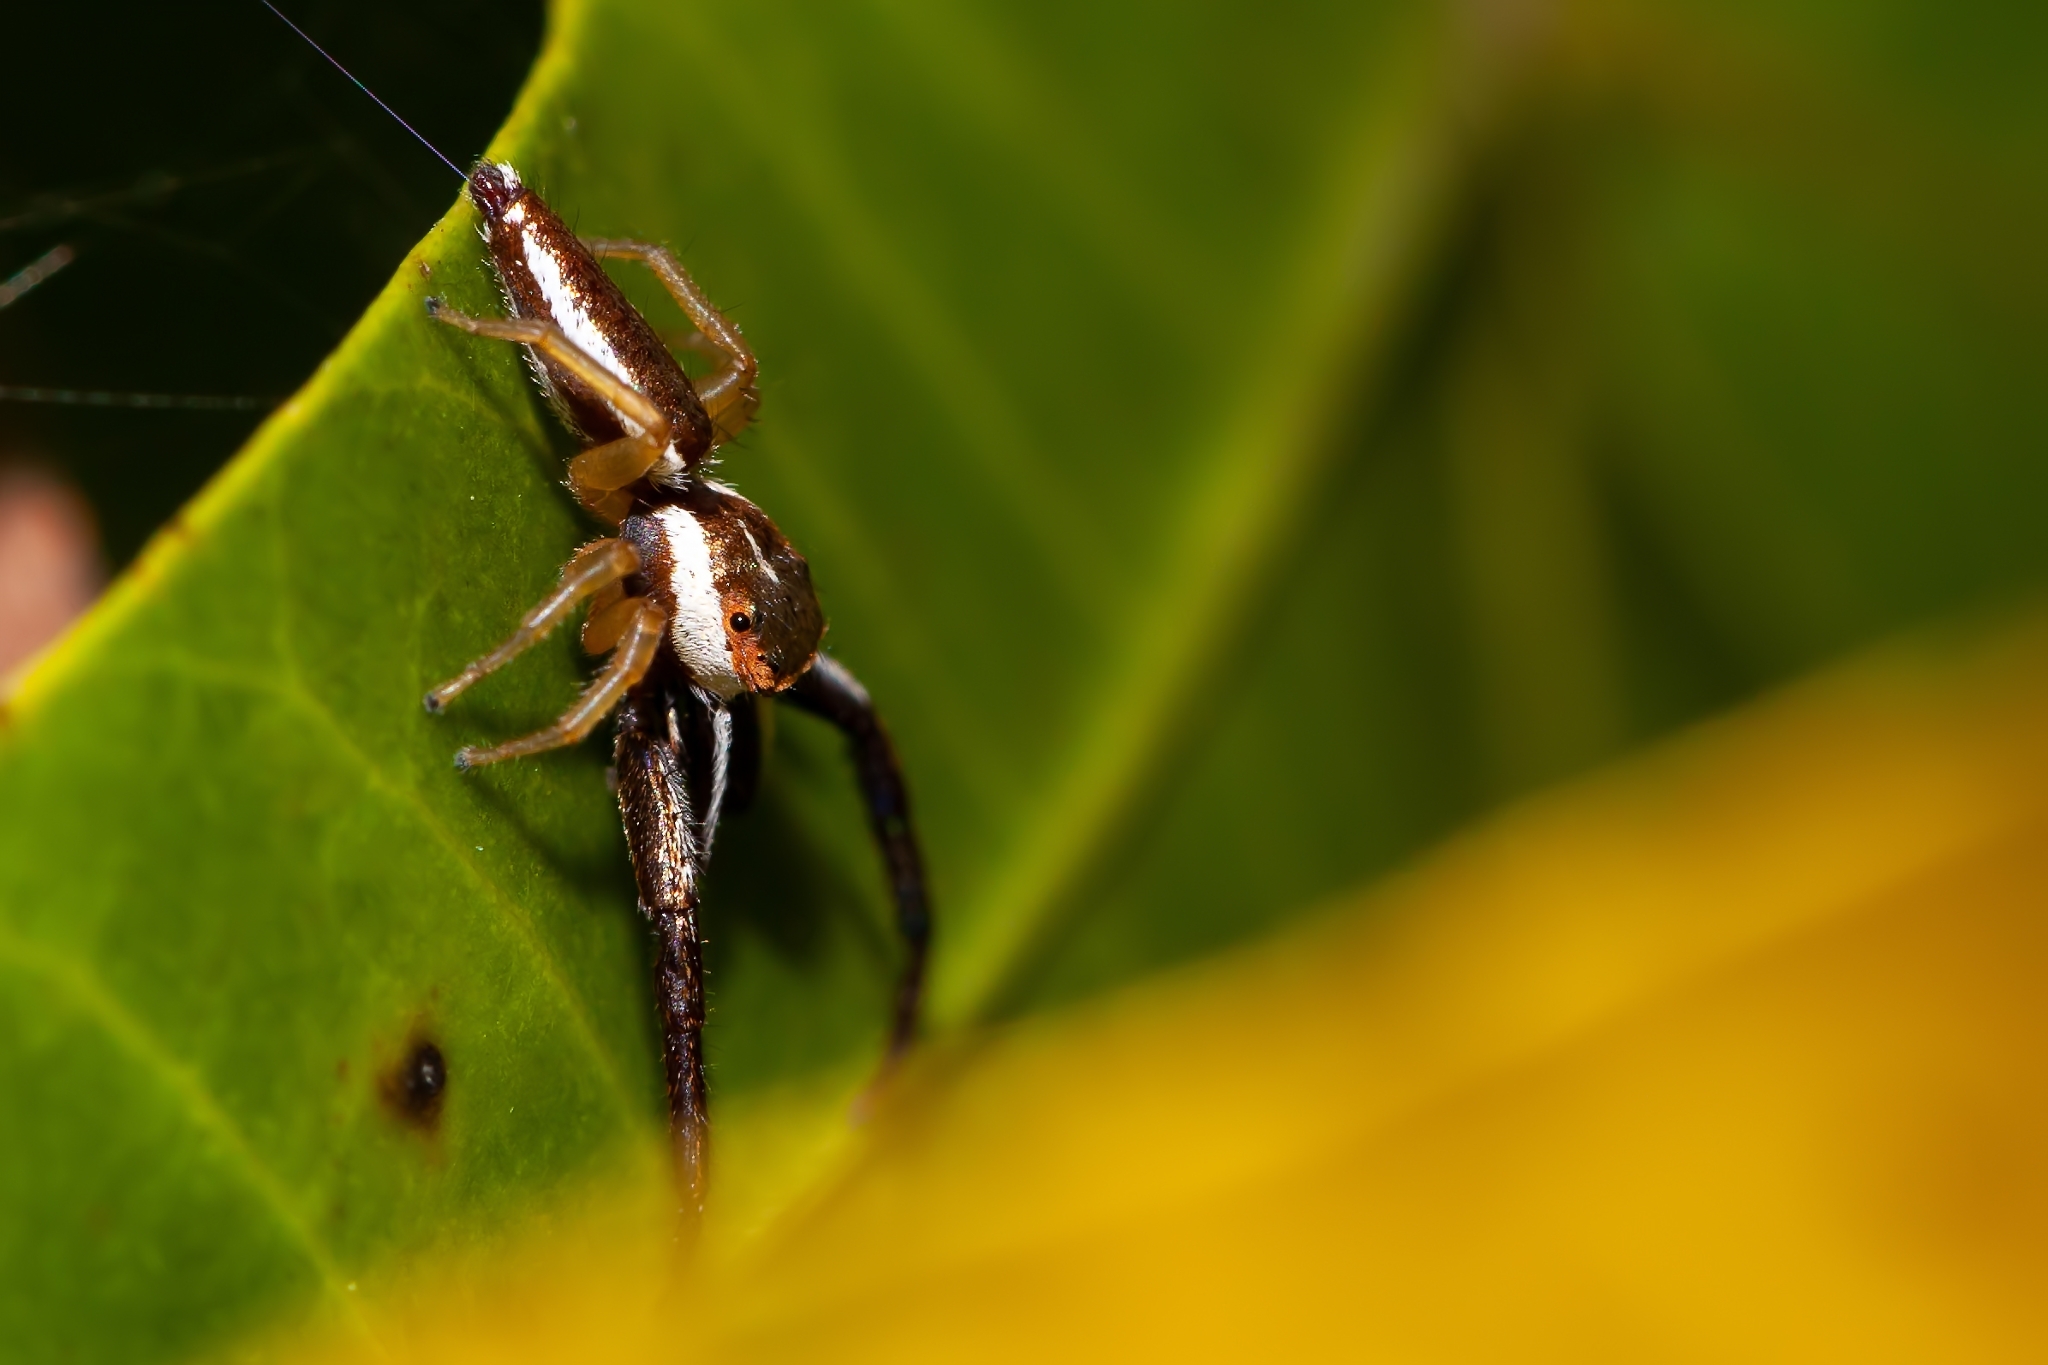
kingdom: Animalia
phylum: Arthropoda
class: Arachnida
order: Araneae
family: Salticidae
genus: Hentzia
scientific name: Hentzia palmarum
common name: Common hentz jumping spider
